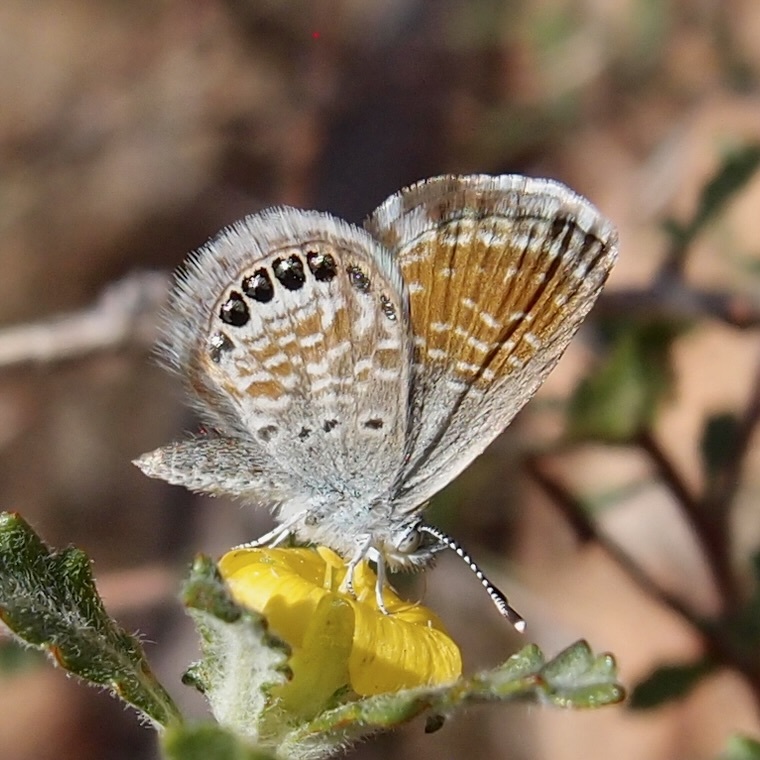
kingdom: Animalia
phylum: Arthropoda
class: Insecta
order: Lepidoptera
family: Lycaenidae
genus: Brephidium
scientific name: Brephidium exilis
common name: Pygmy blue
